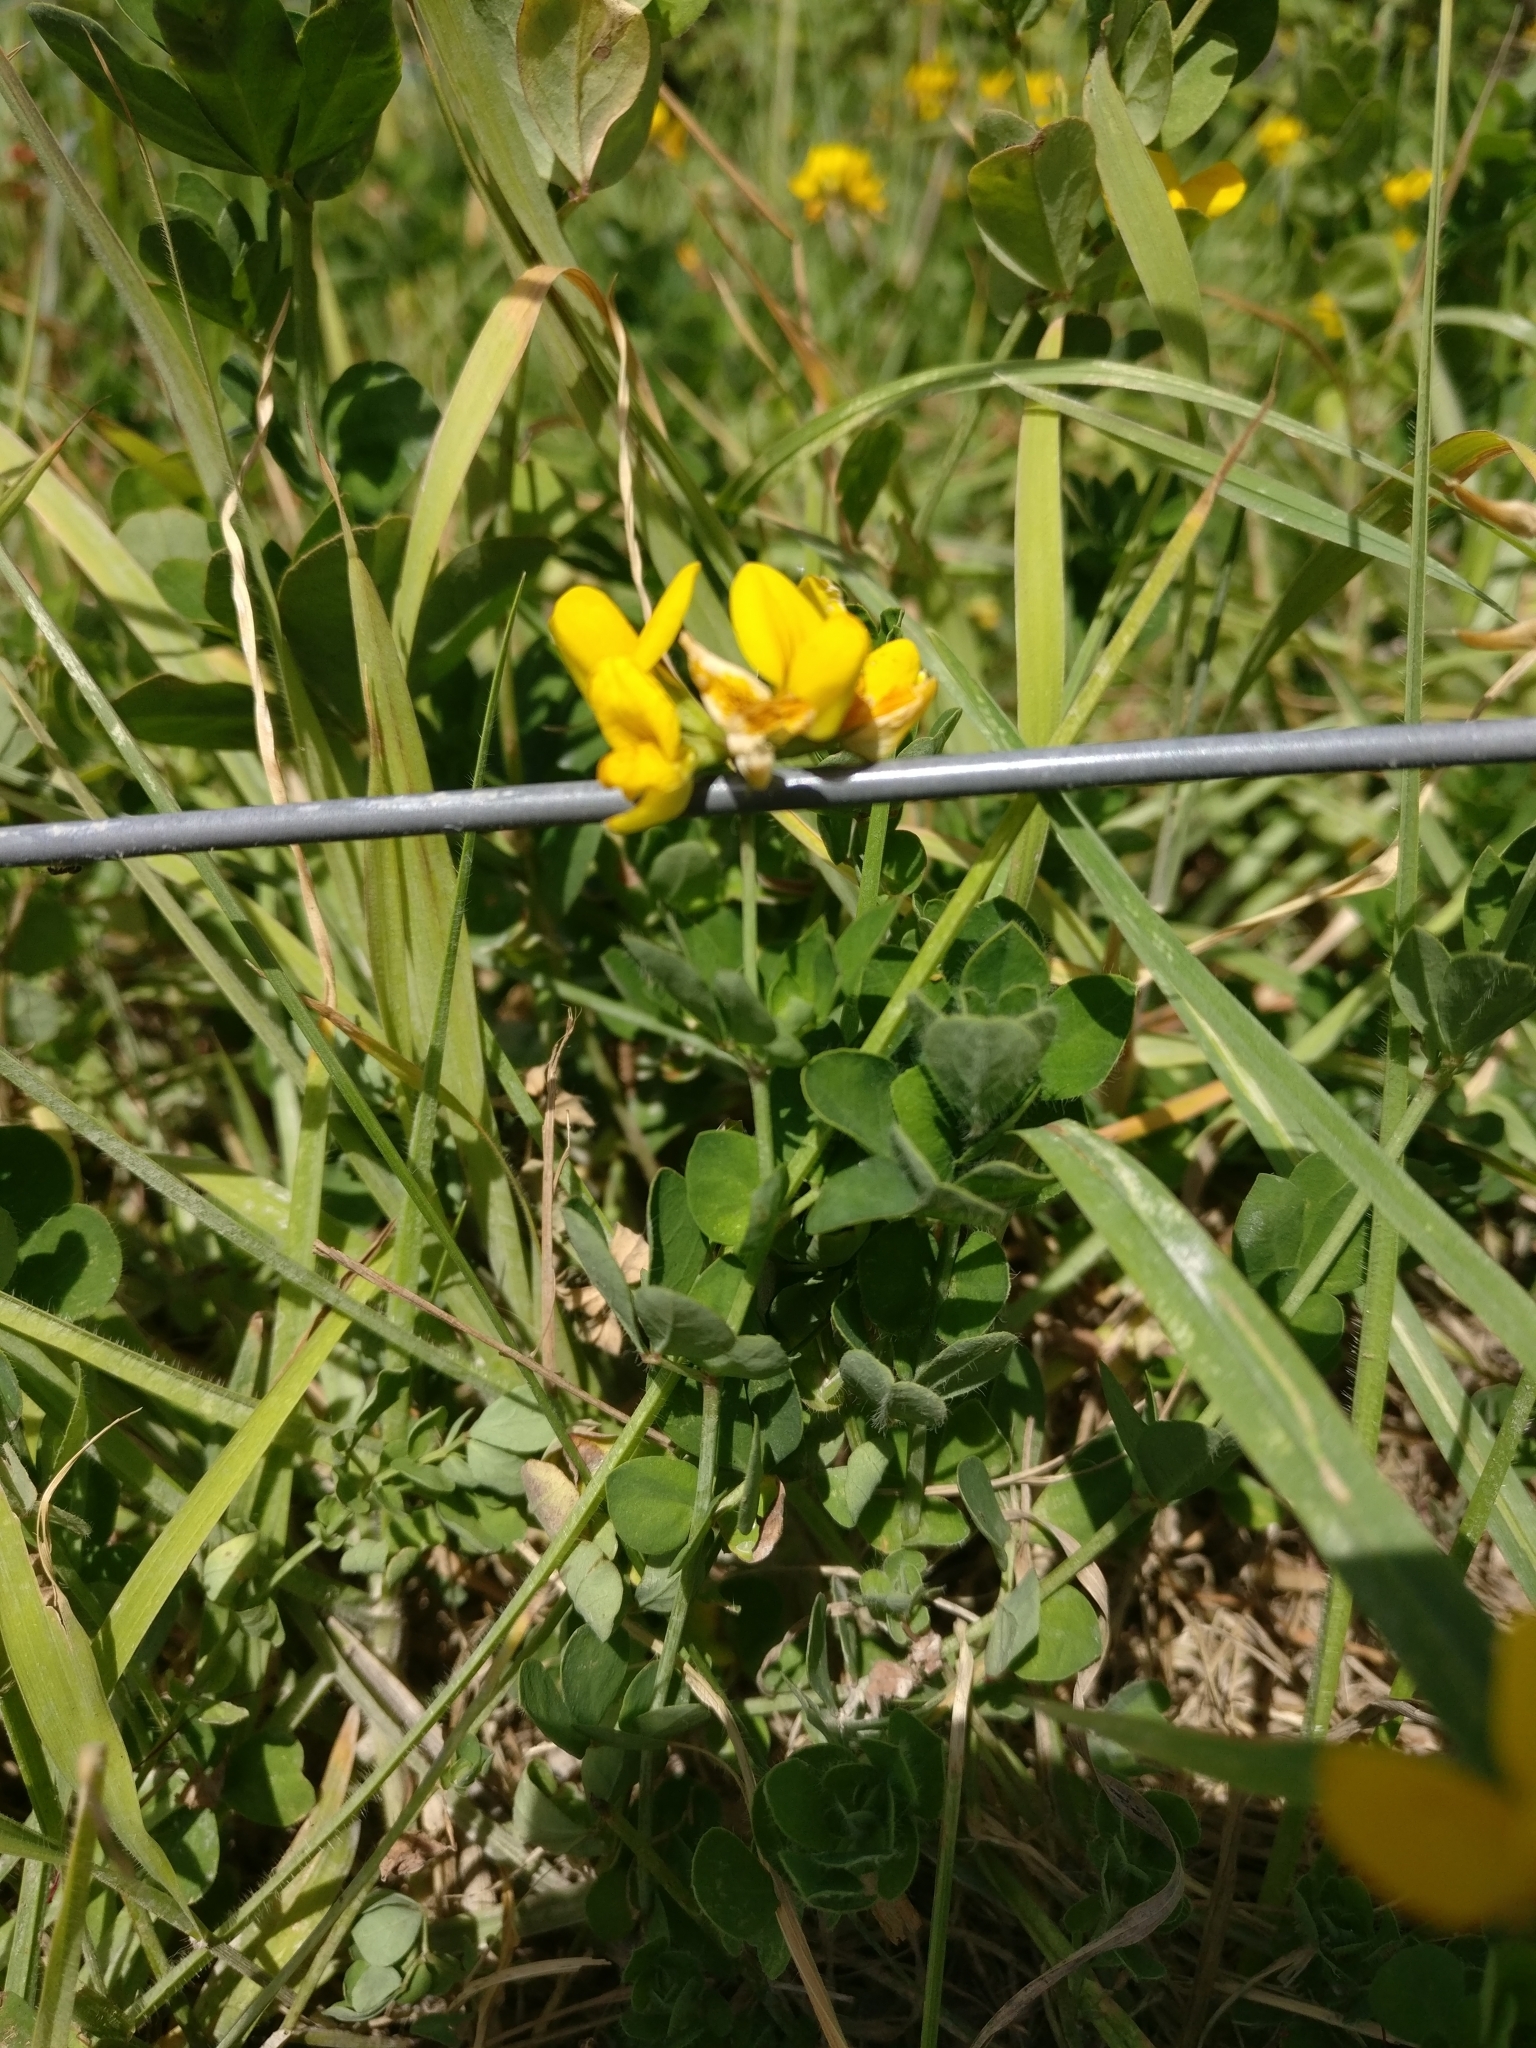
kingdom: Plantae
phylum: Tracheophyta
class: Magnoliopsida
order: Fabales
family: Fabaceae
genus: Lotus
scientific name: Lotus pedunculatus
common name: Greater birdsfoot-trefoil
